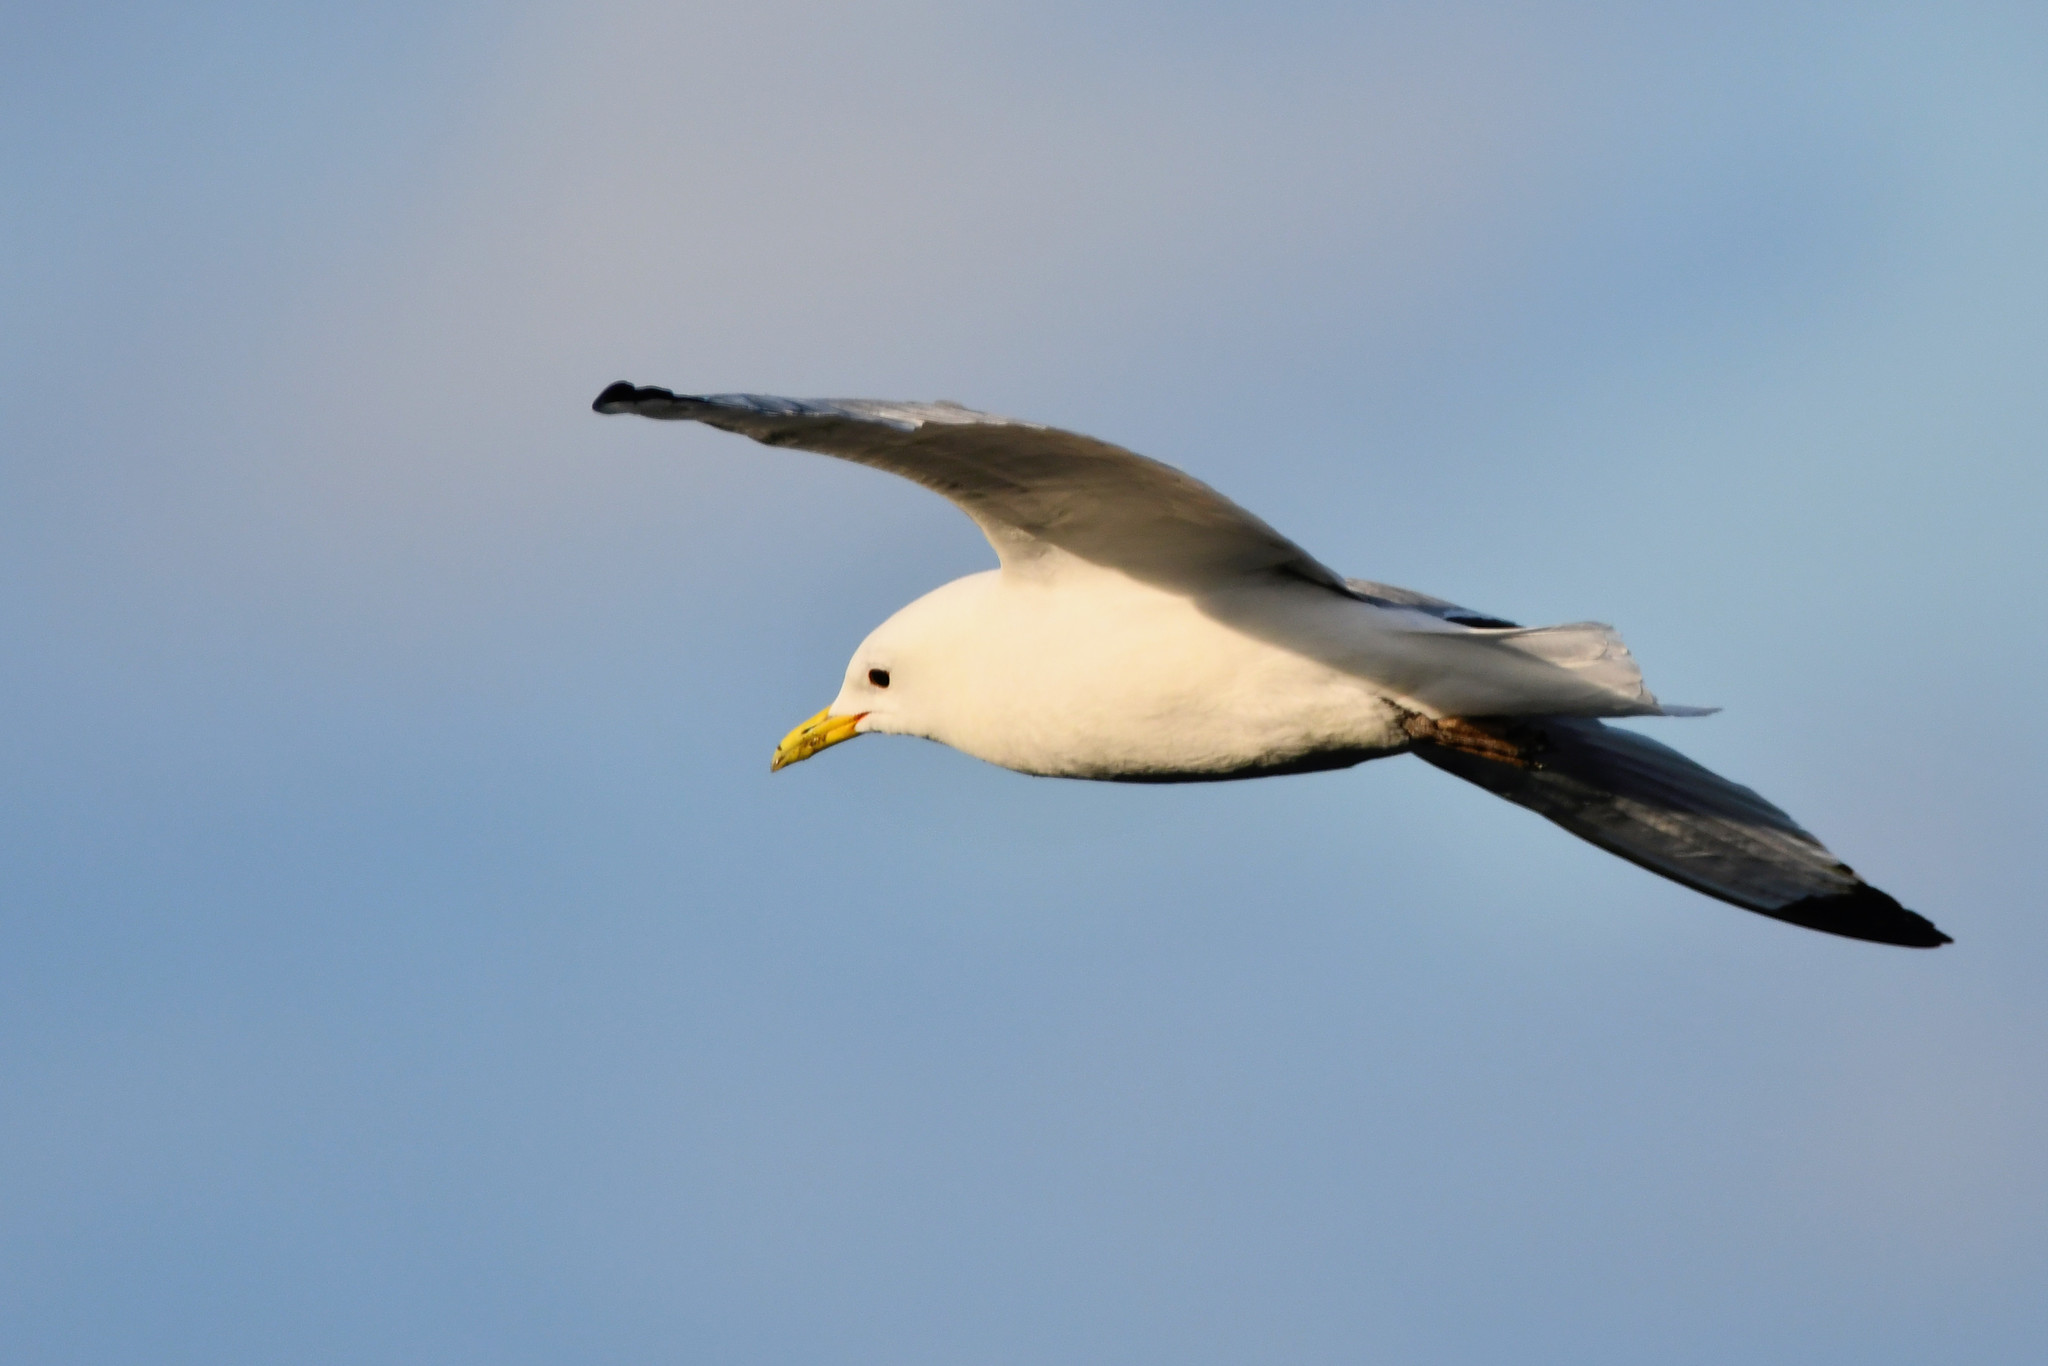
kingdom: Animalia
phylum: Chordata
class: Aves
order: Charadriiformes
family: Laridae
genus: Larus
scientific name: Larus canus
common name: Mew gull
